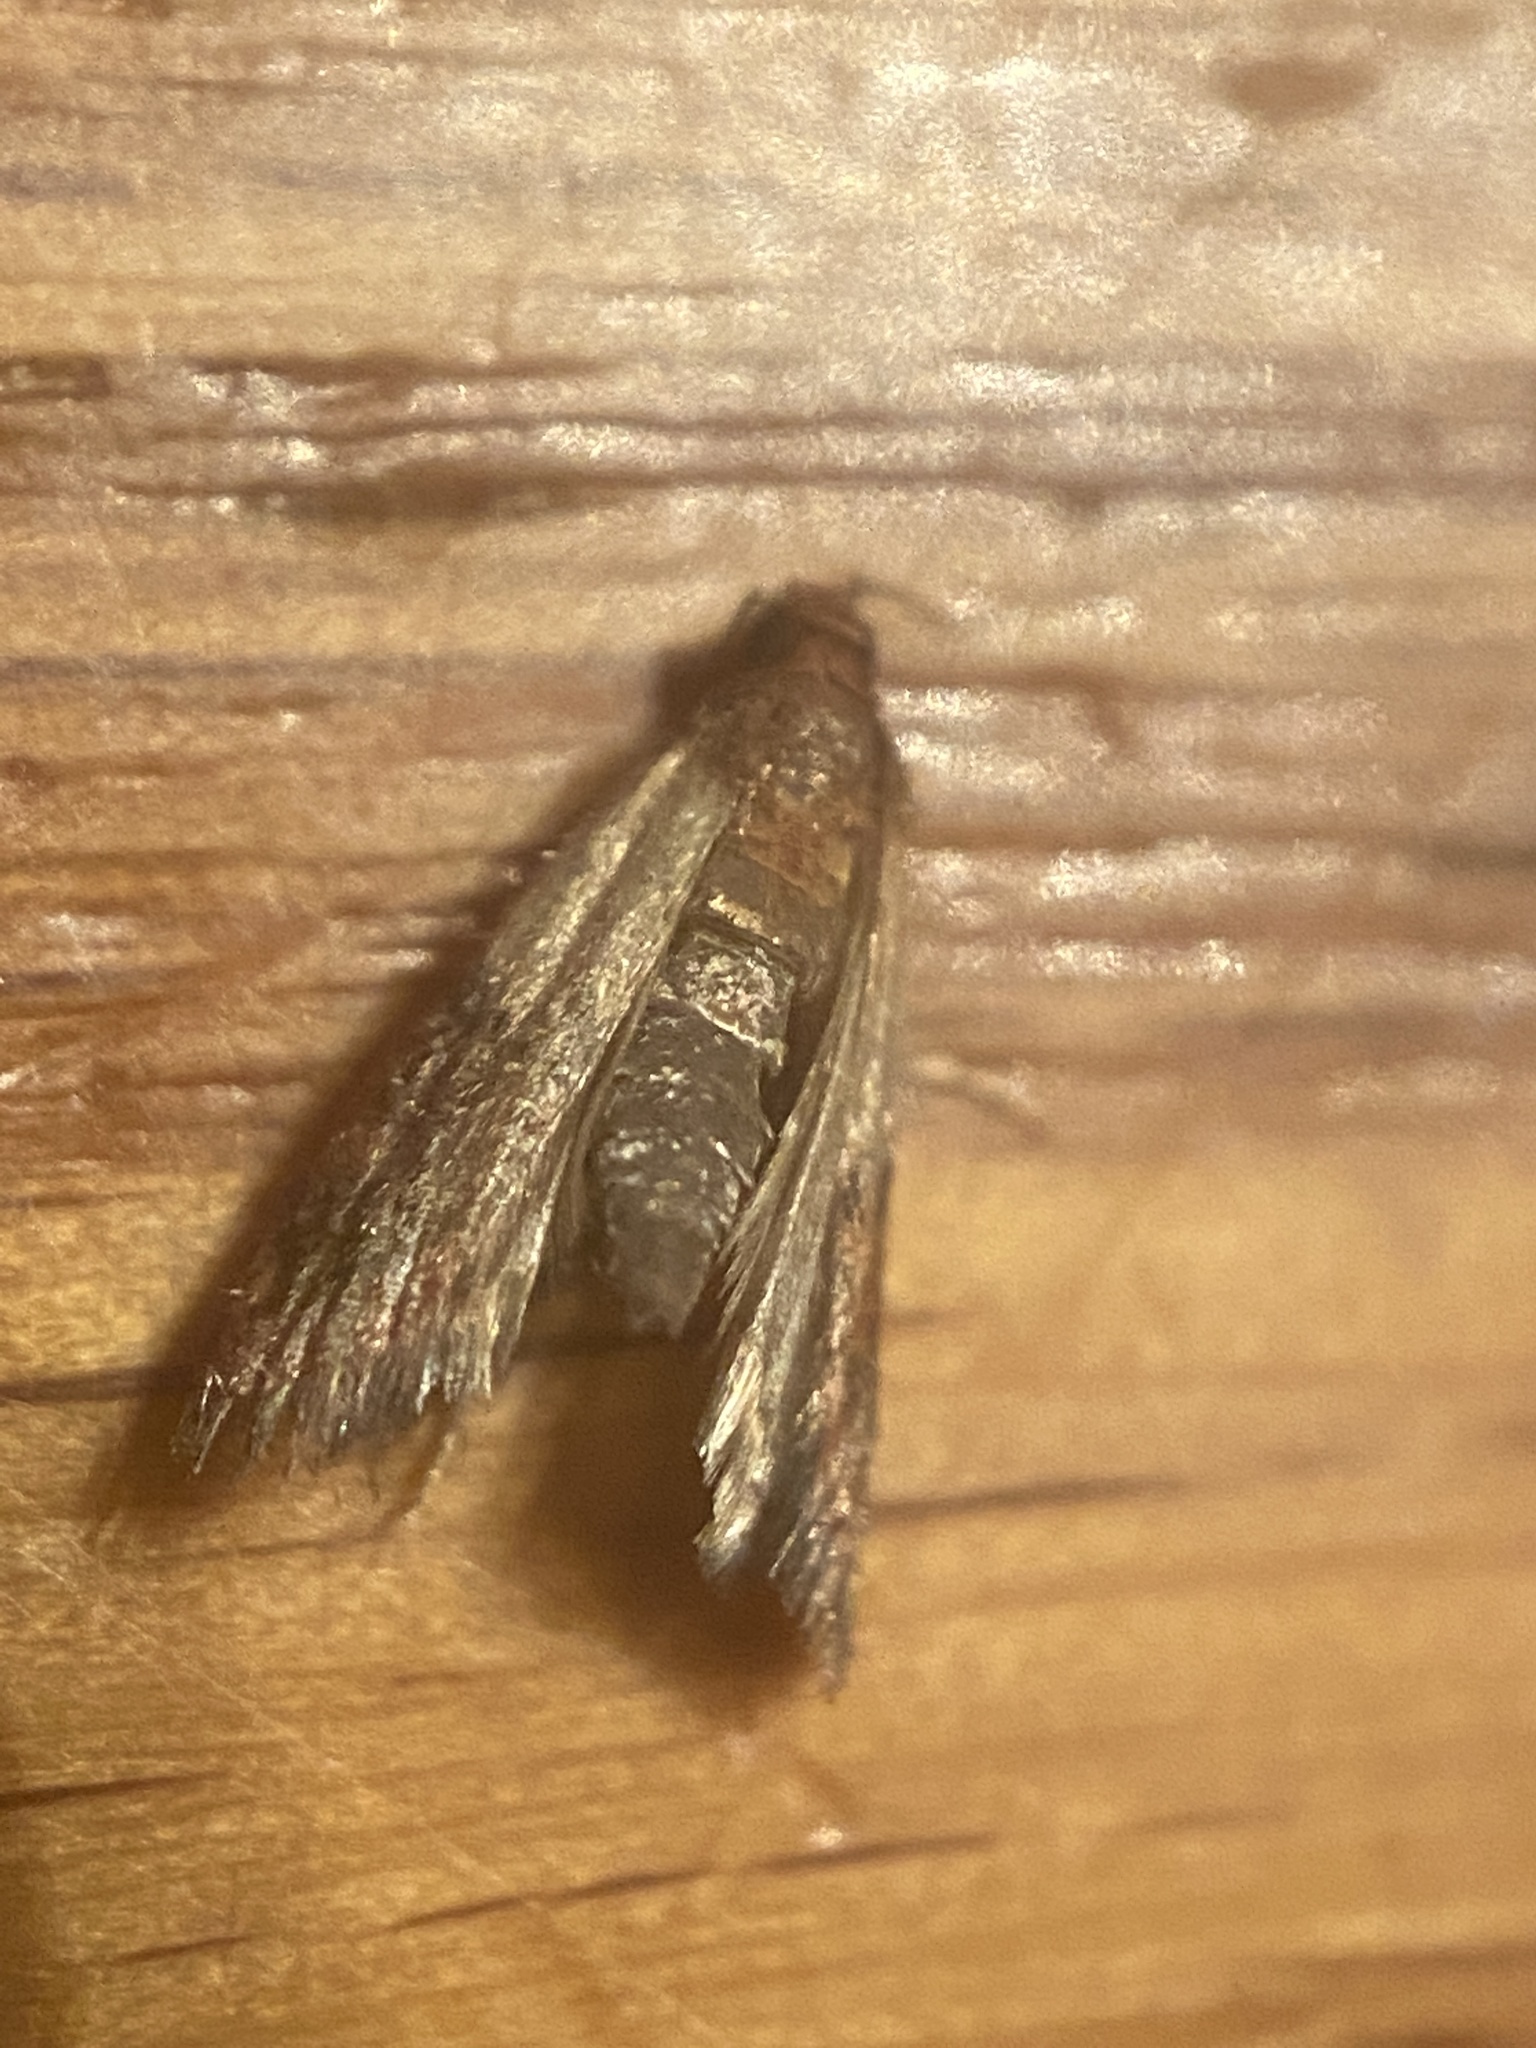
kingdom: Animalia
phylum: Arthropoda
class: Insecta
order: Lepidoptera
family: Pyralidae
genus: Plodia
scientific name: Plodia interpunctella
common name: Indian meal moth
